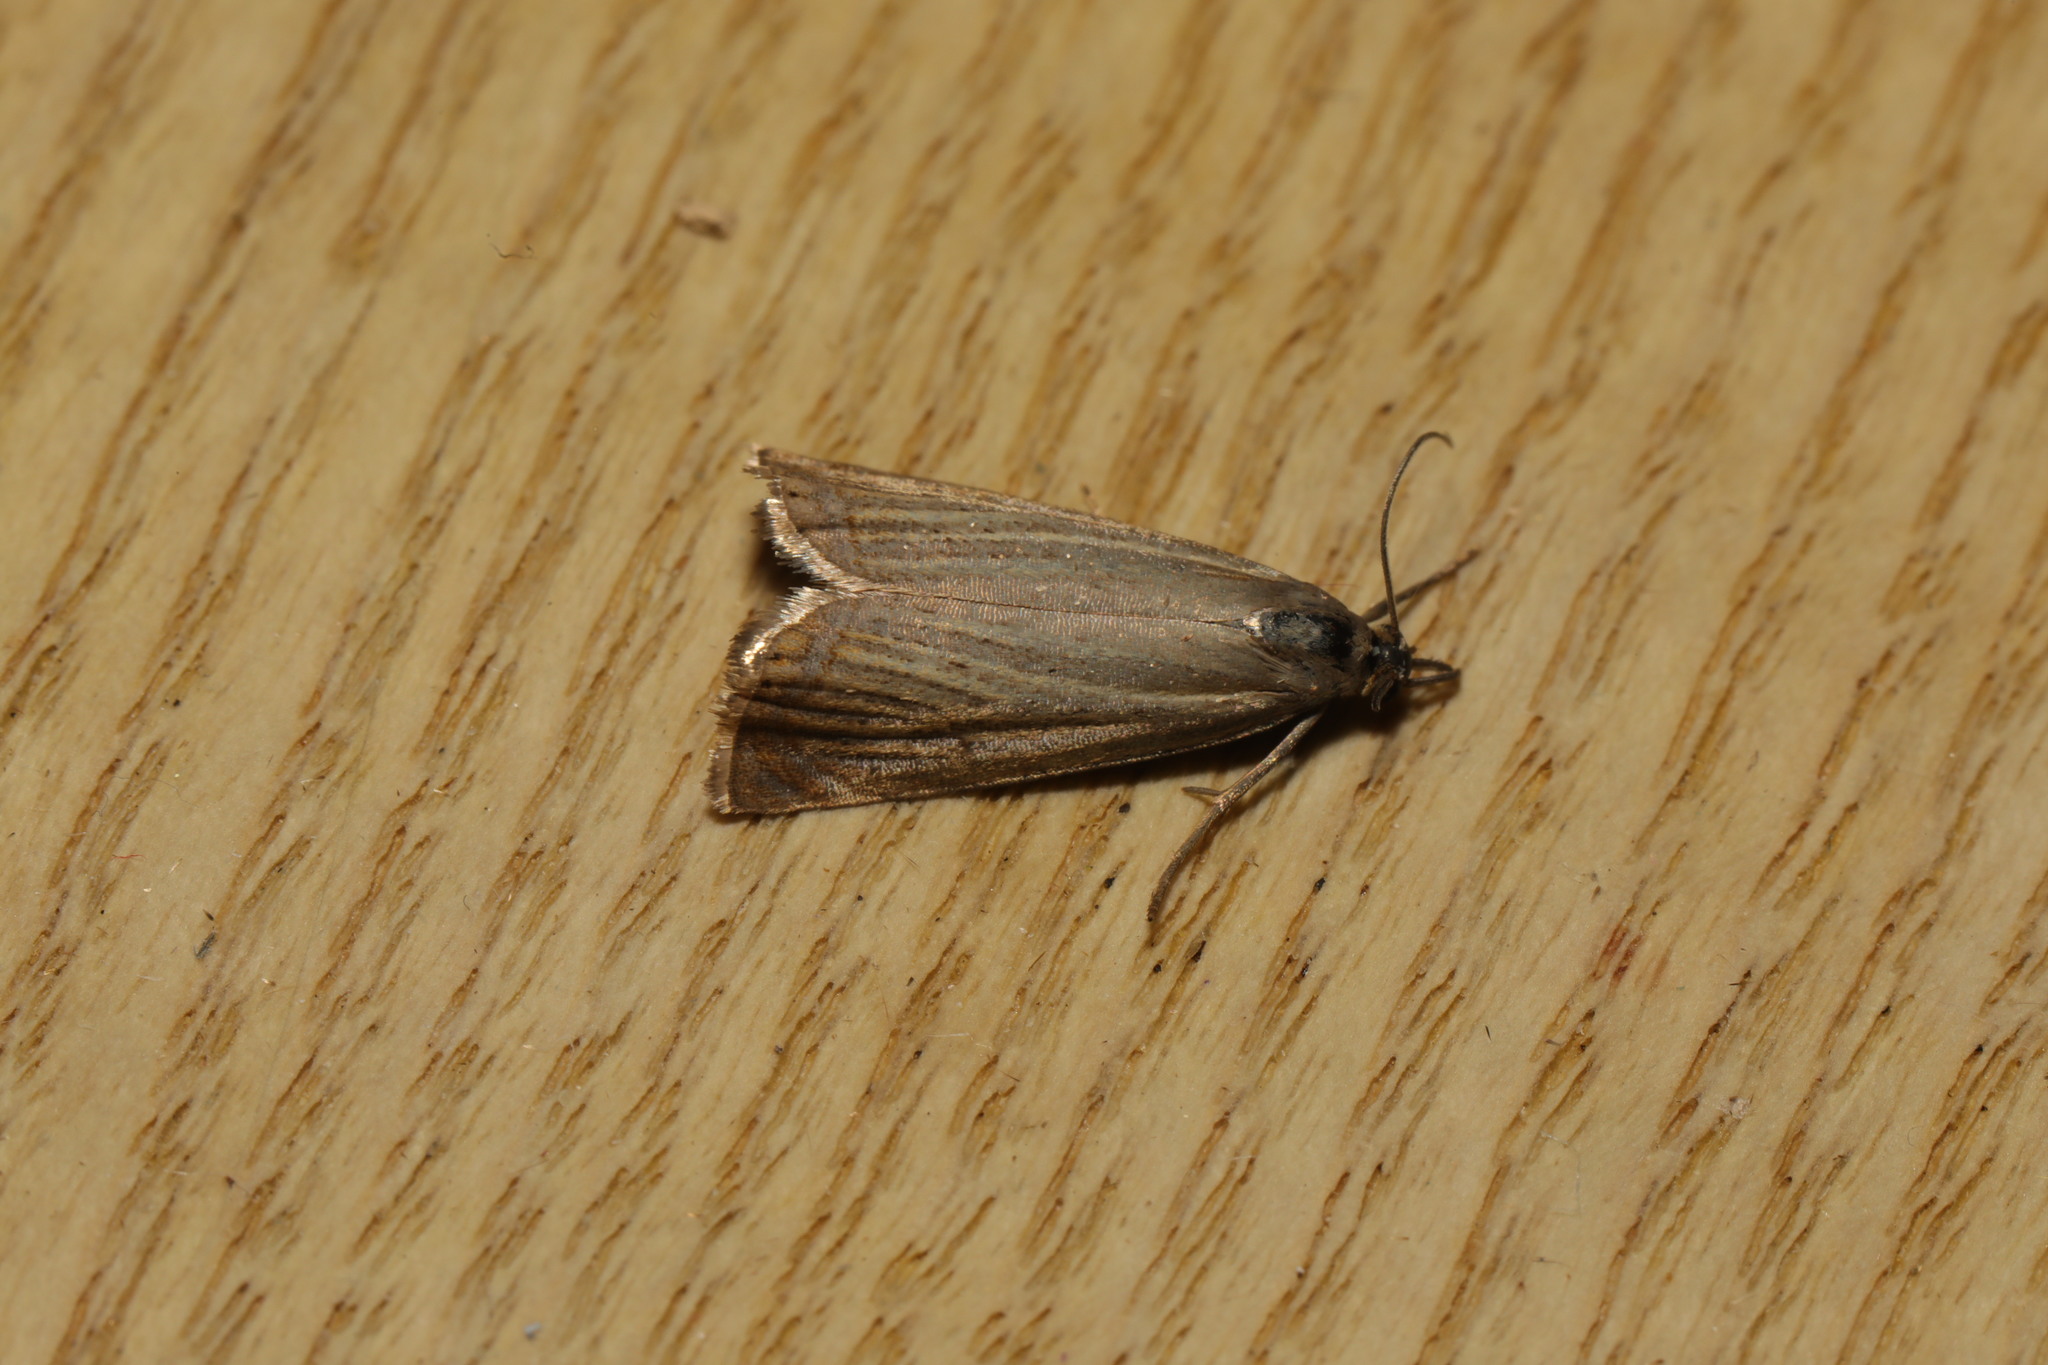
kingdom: Animalia
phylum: Arthropoda
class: Insecta
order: Lepidoptera
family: Crambidae
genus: Chrysoteuchia
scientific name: Chrysoteuchia culmella
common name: Garden grass-veneer
